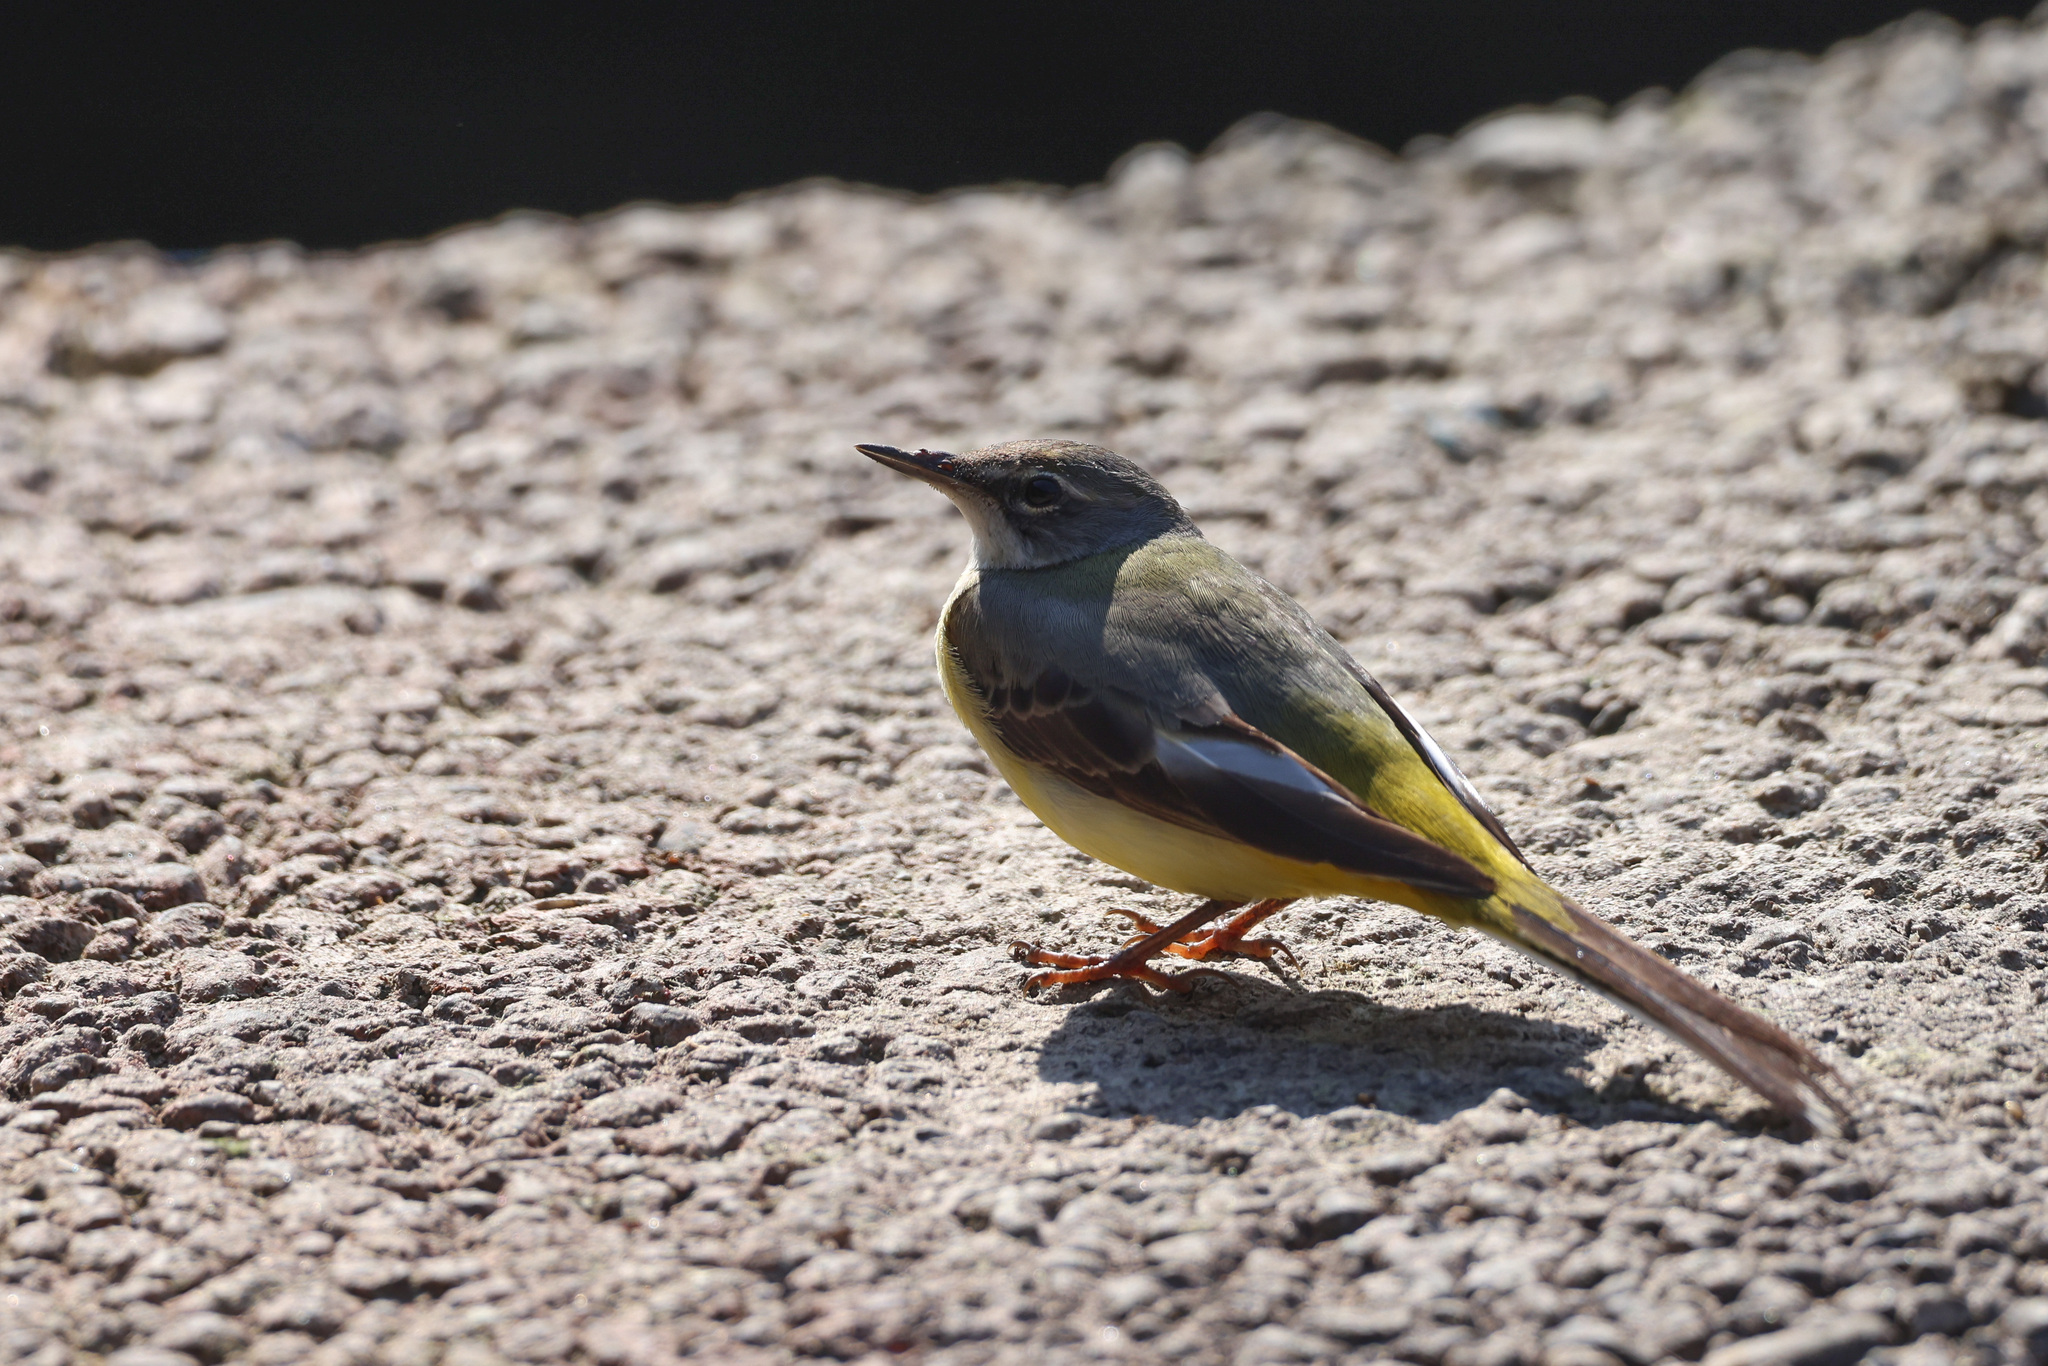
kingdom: Animalia
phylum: Chordata
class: Aves
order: Passeriformes
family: Motacillidae
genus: Motacilla
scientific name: Motacilla cinerea
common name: Grey wagtail
